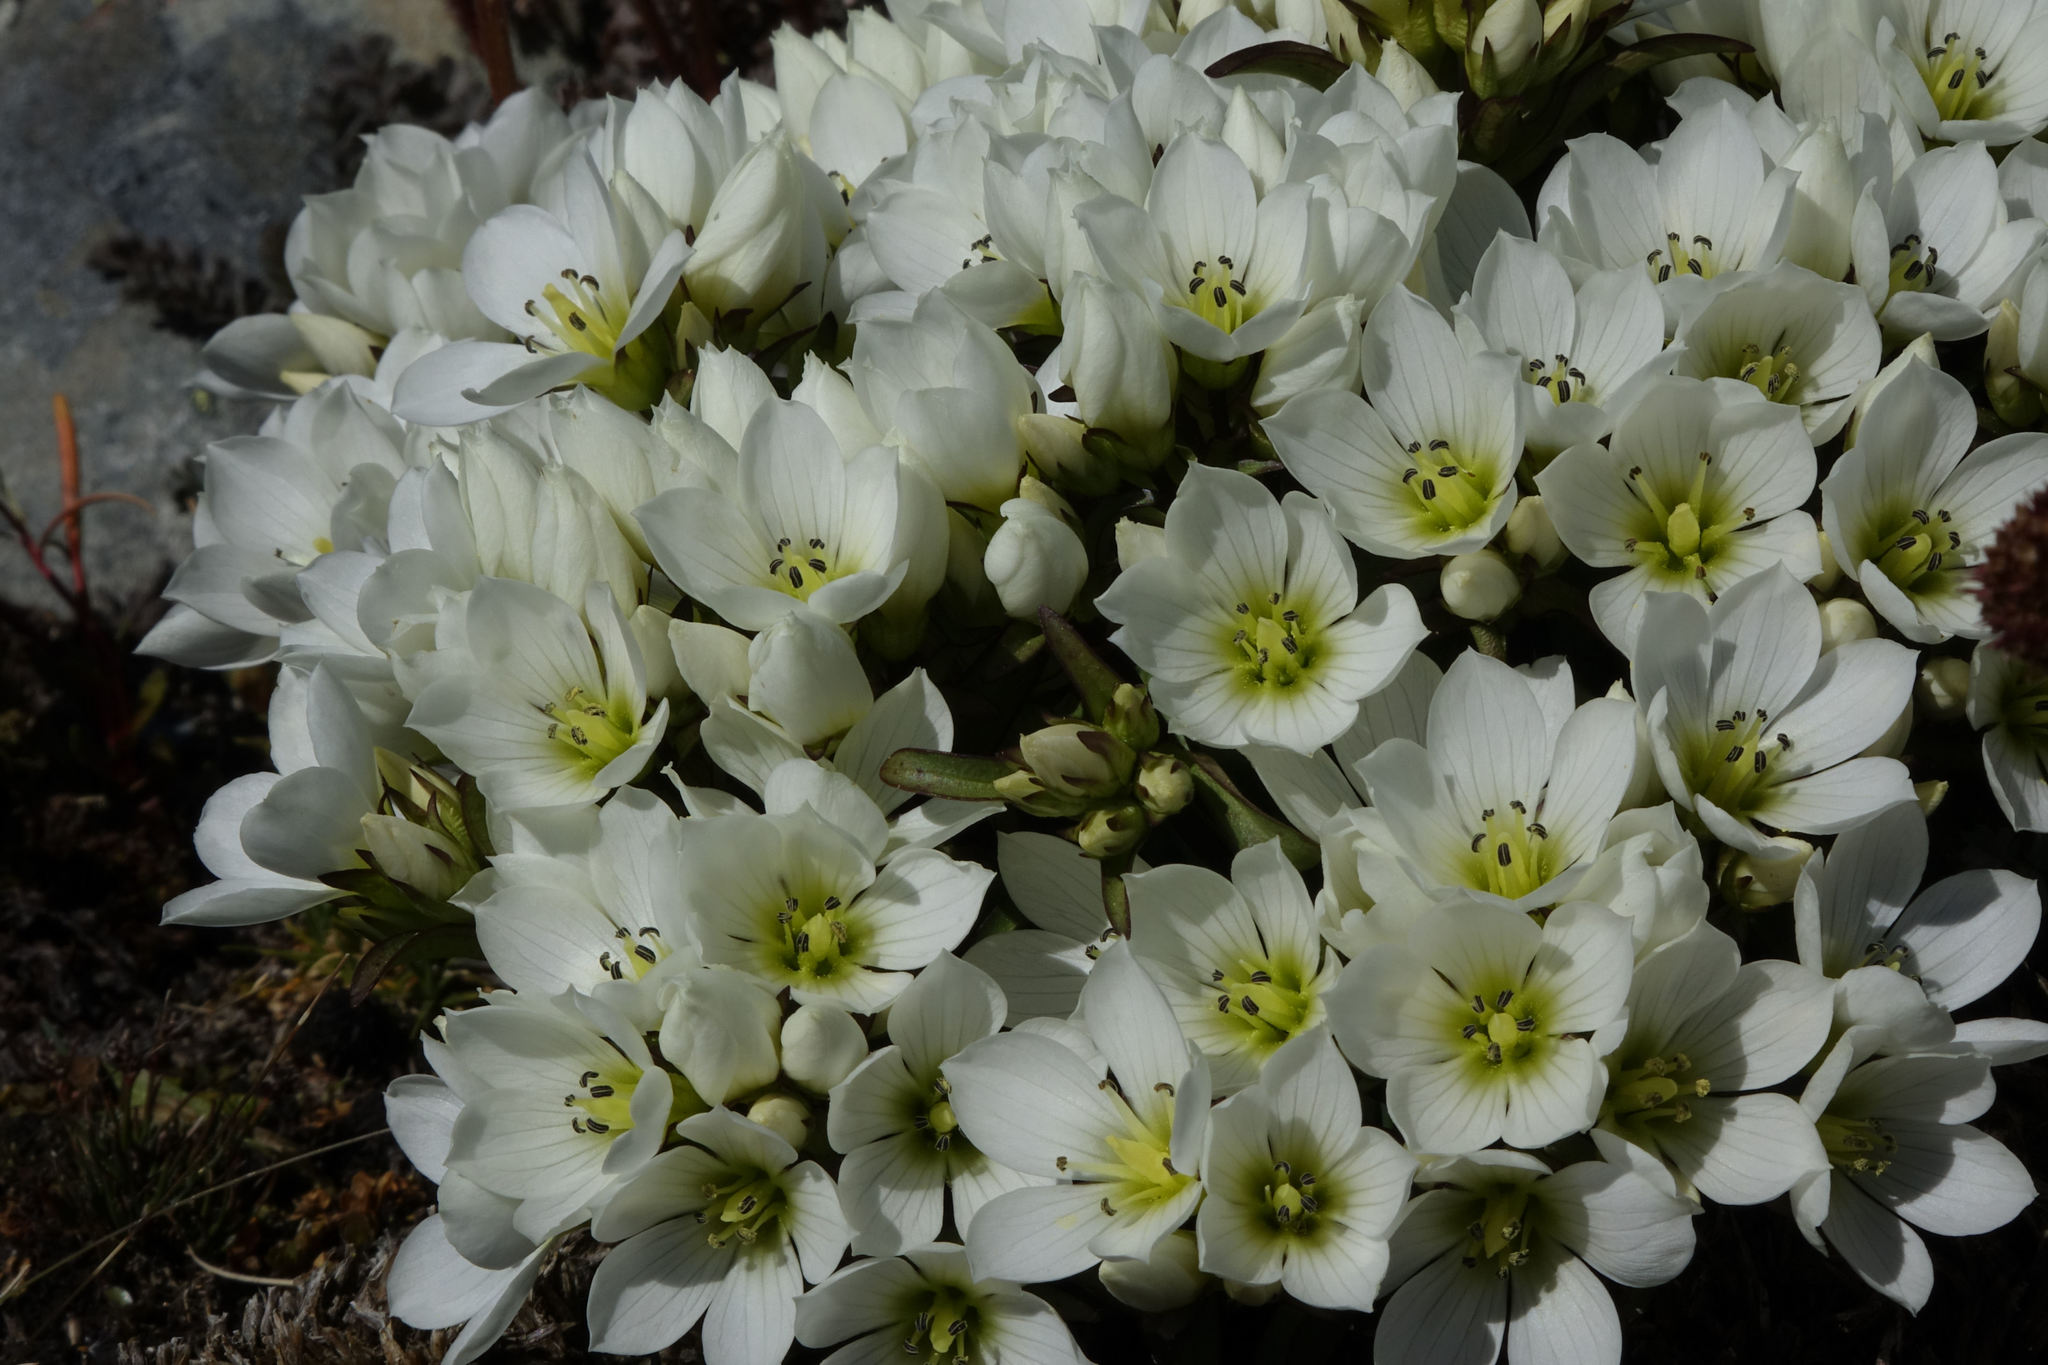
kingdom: Plantae
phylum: Tracheophyta
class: Magnoliopsida
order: Gentianales
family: Gentianaceae
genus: Gentianella
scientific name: Gentianella bellidifolia
